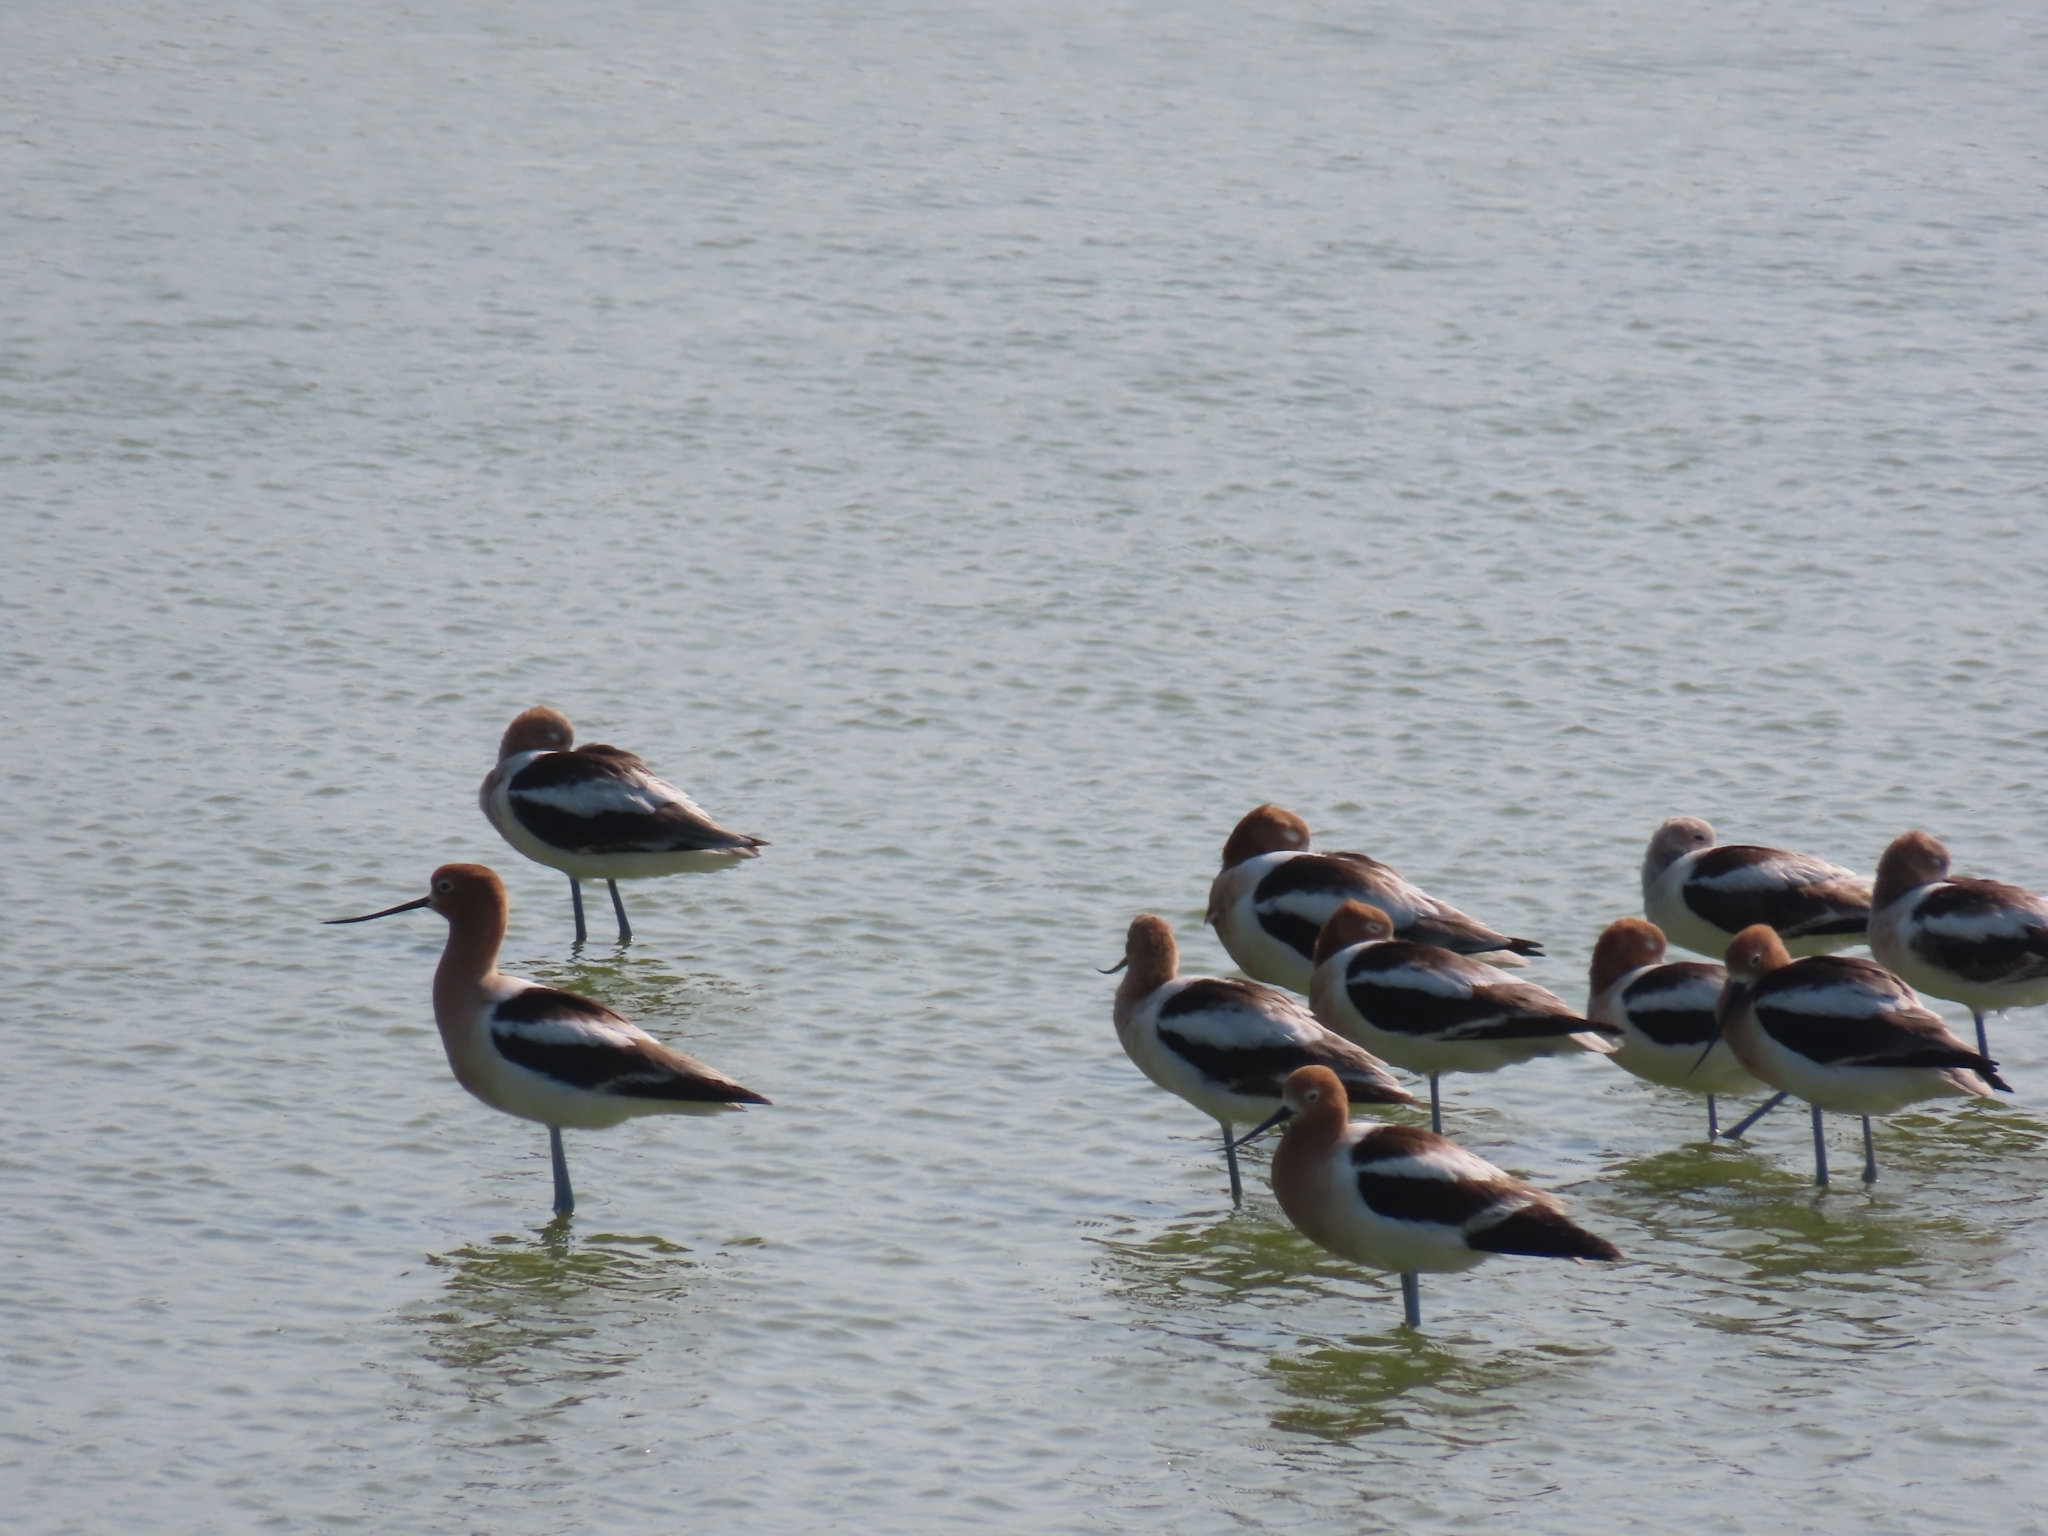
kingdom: Animalia
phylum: Chordata
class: Aves
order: Charadriiformes
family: Recurvirostridae
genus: Recurvirostra
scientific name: Recurvirostra americana
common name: American avocet
